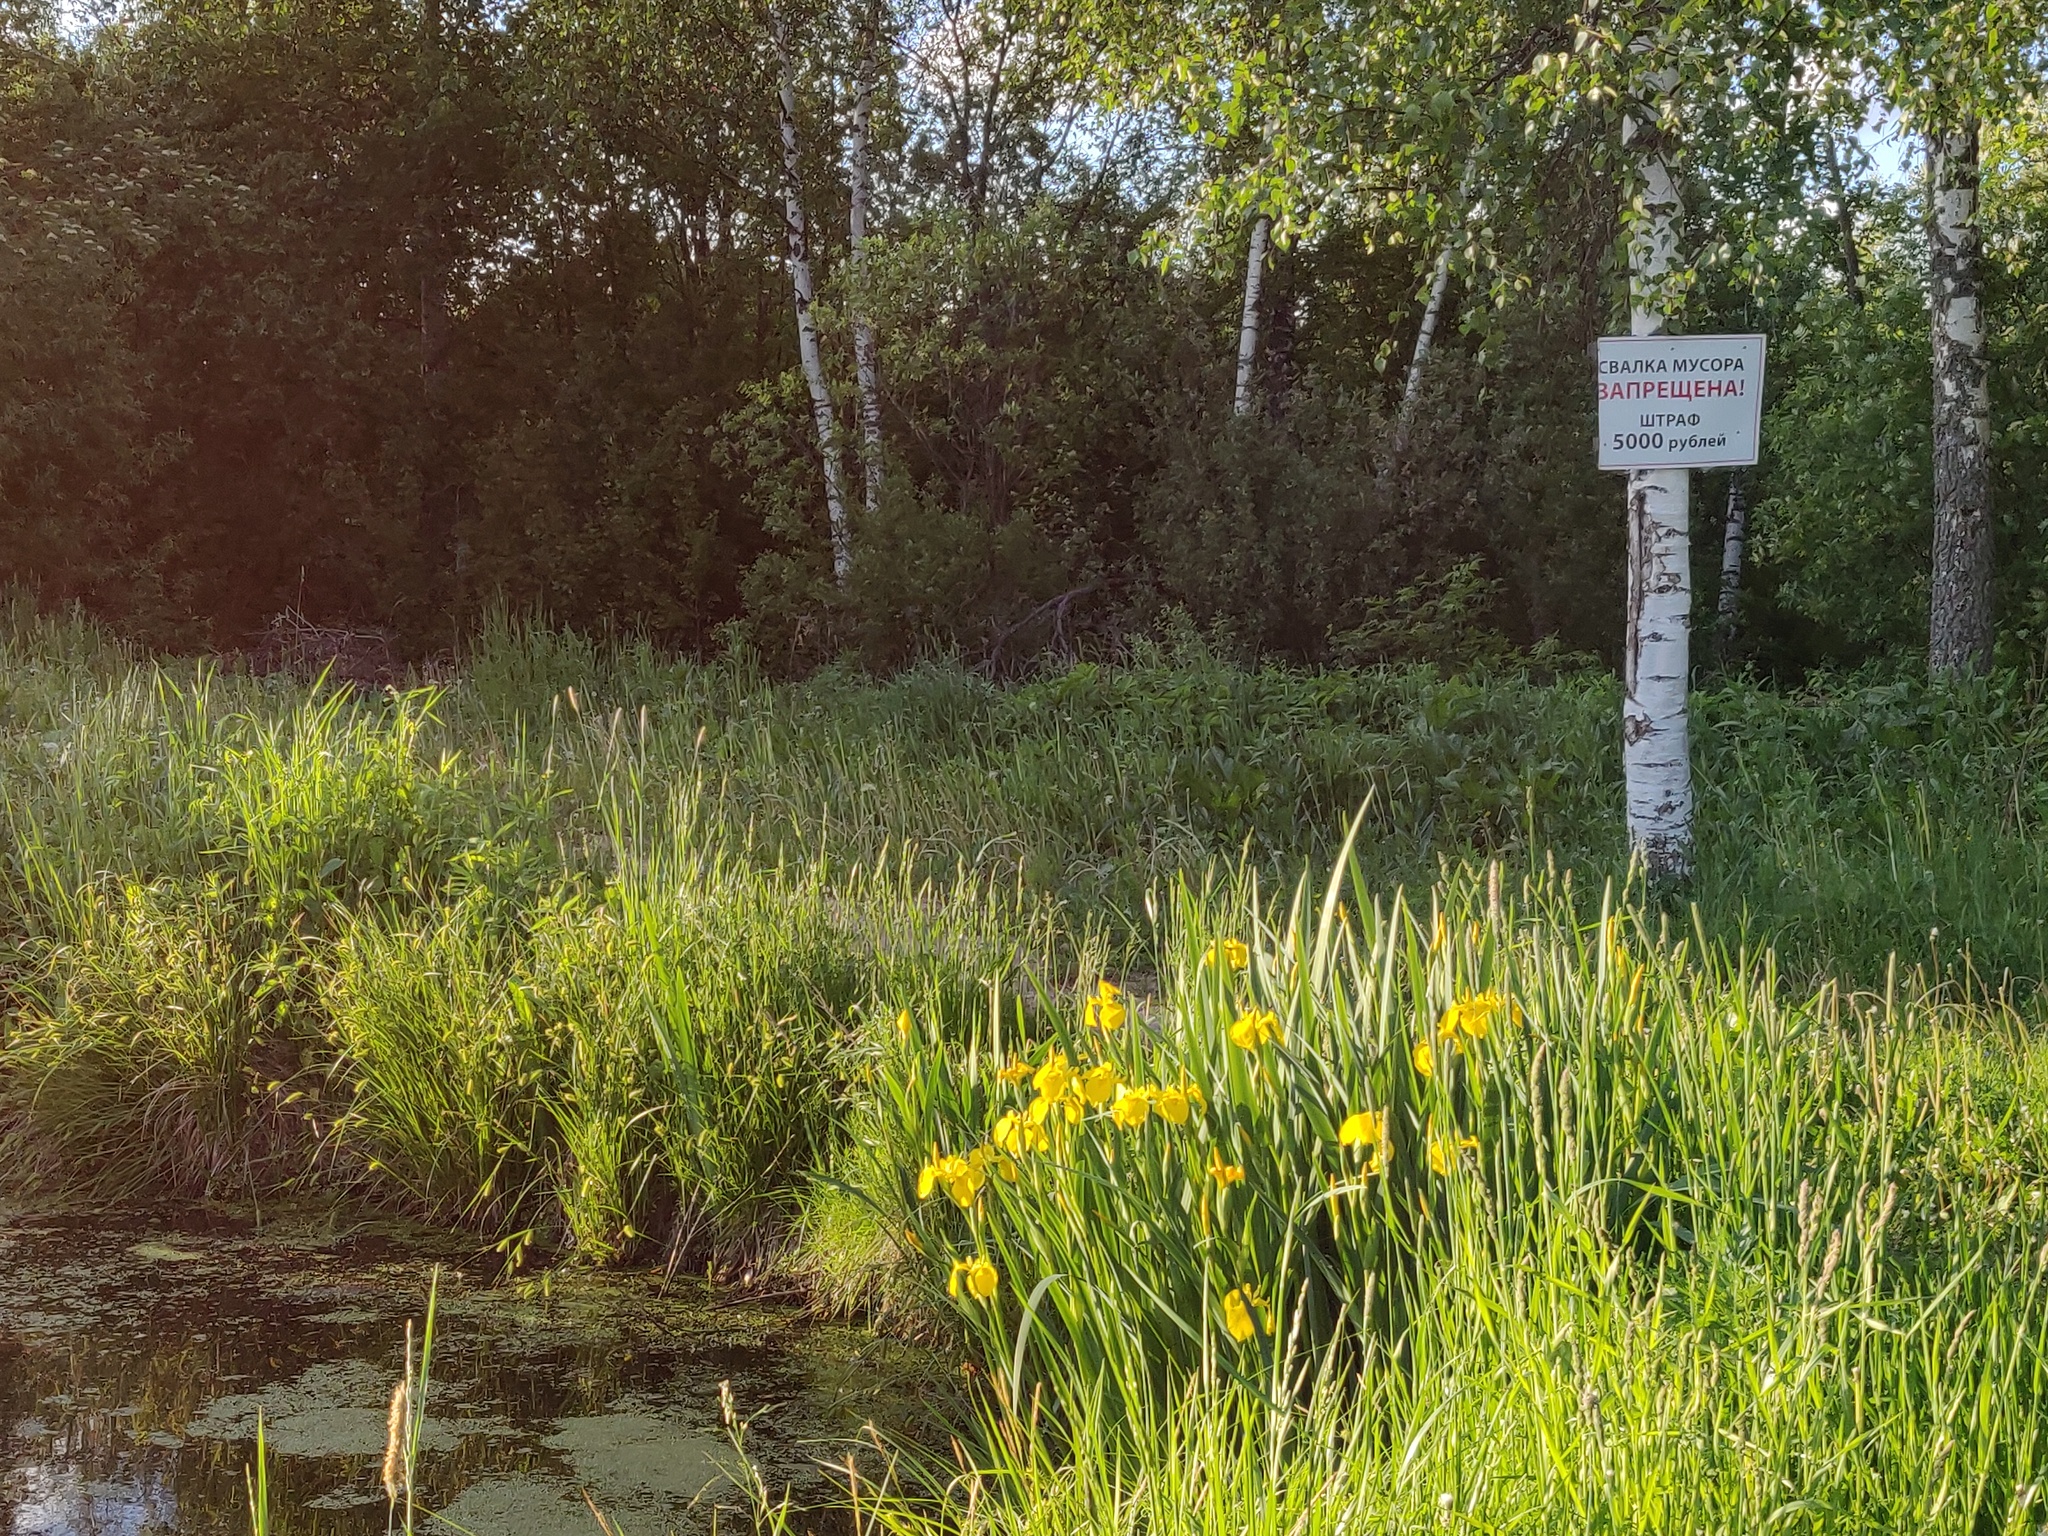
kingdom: Plantae
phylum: Tracheophyta
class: Liliopsida
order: Asparagales
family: Iridaceae
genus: Iris
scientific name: Iris pseudacorus
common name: Yellow flag
